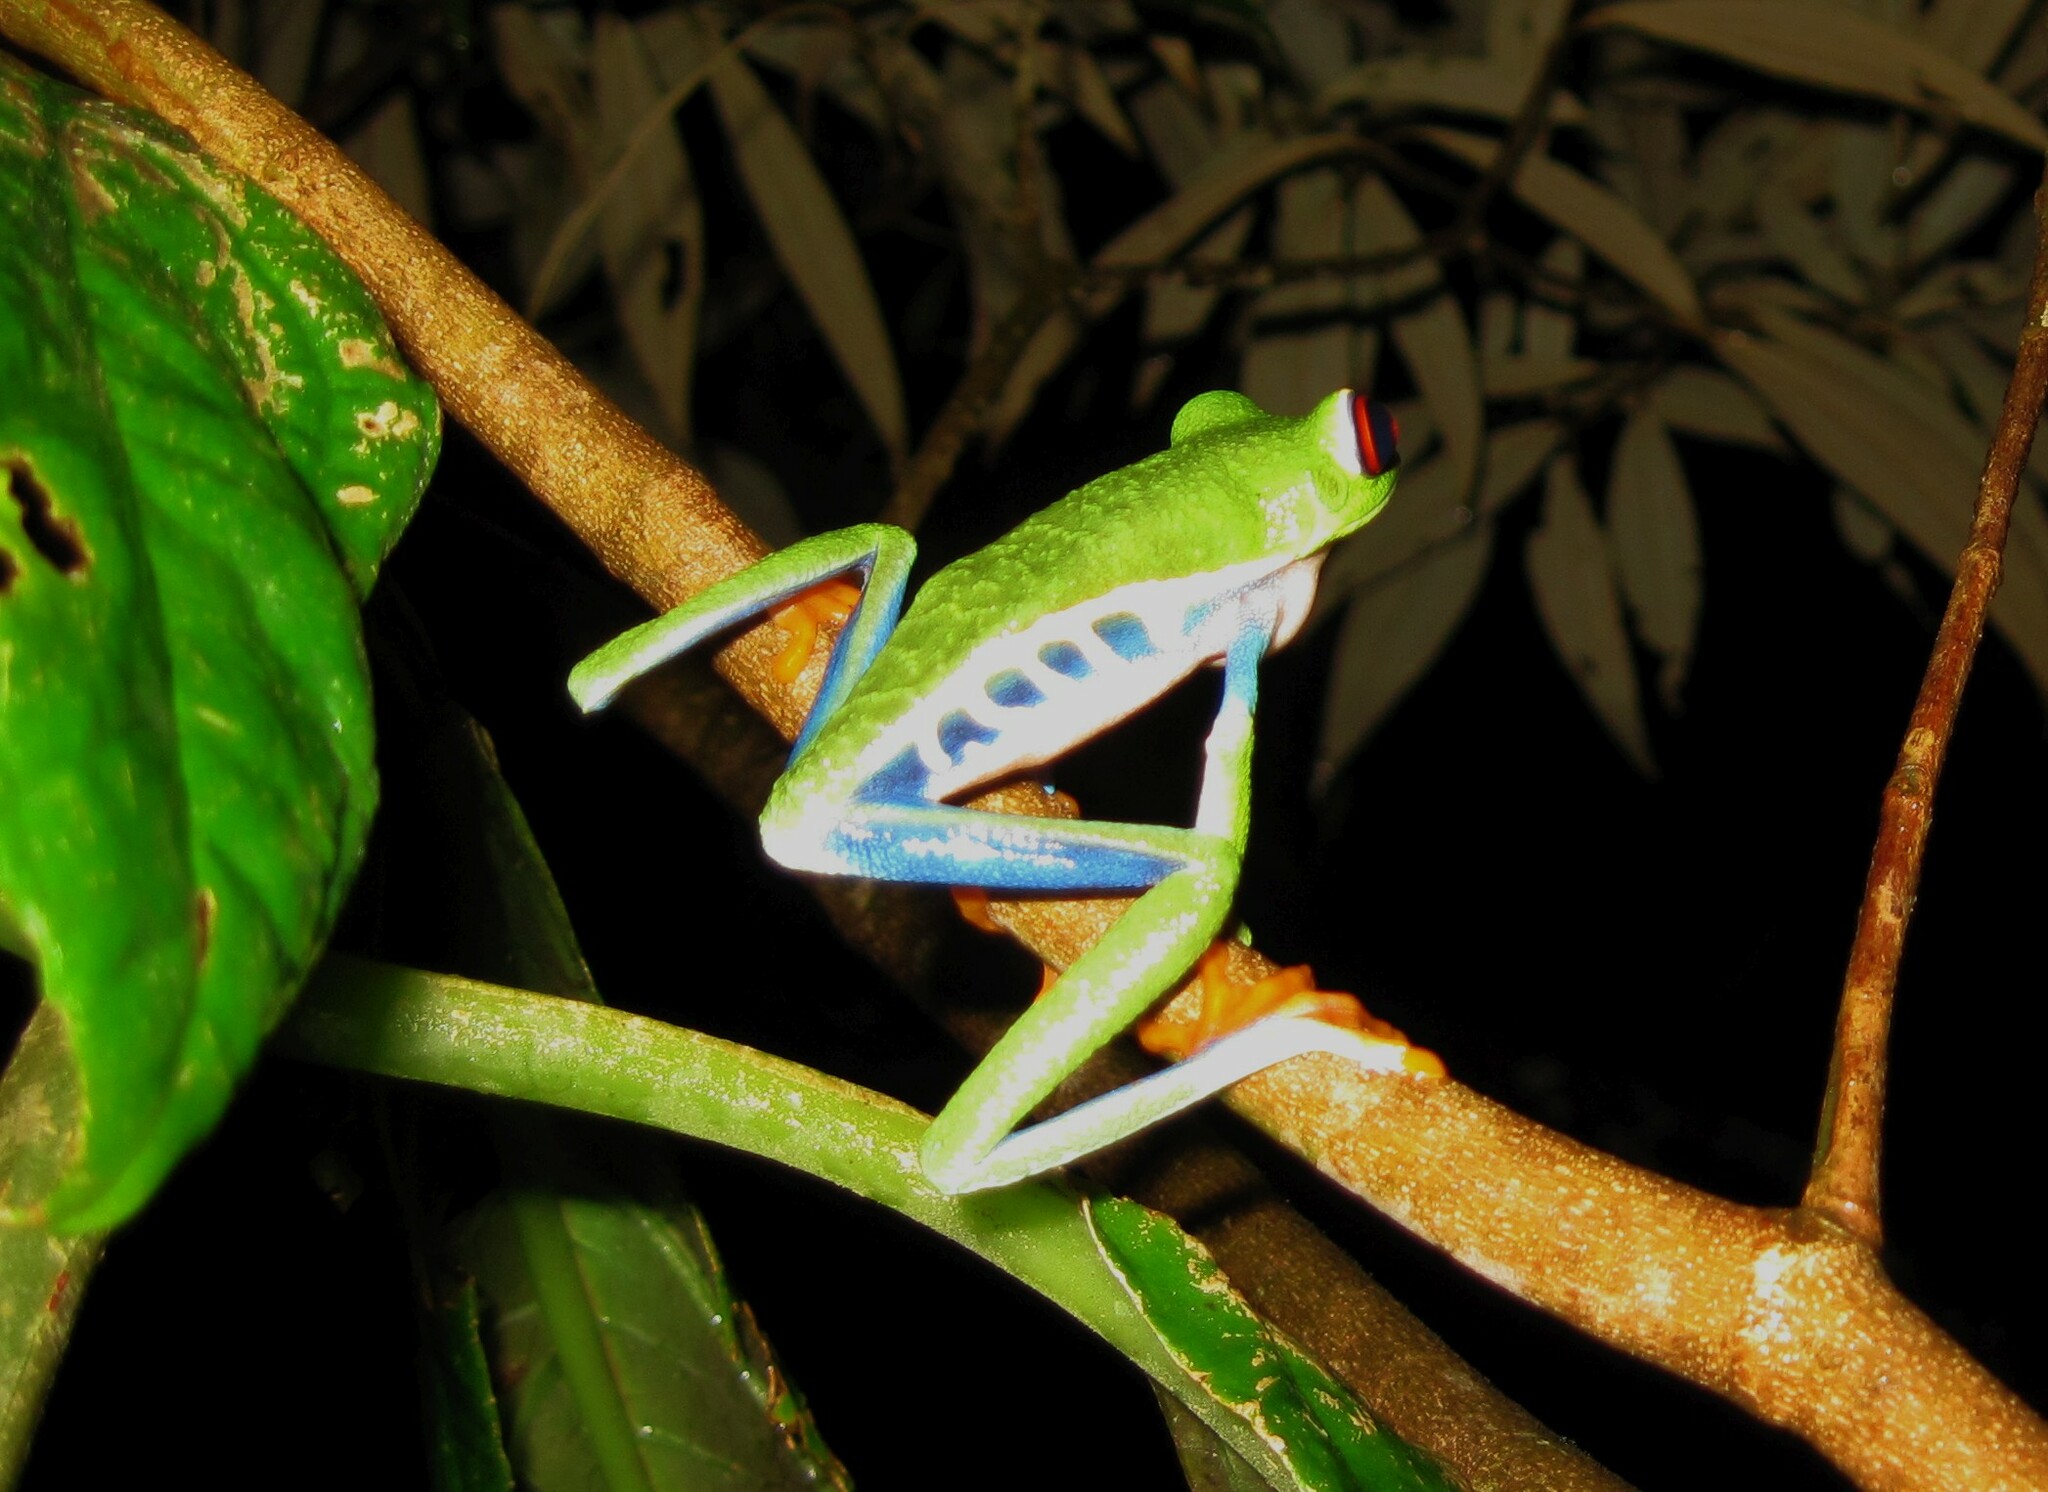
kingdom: Animalia
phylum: Chordata
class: Amphibia
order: Anura
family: Phyllomedusidae
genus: Agalychnis
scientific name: Agalychnis callidryas
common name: Red-eyed treefrog
